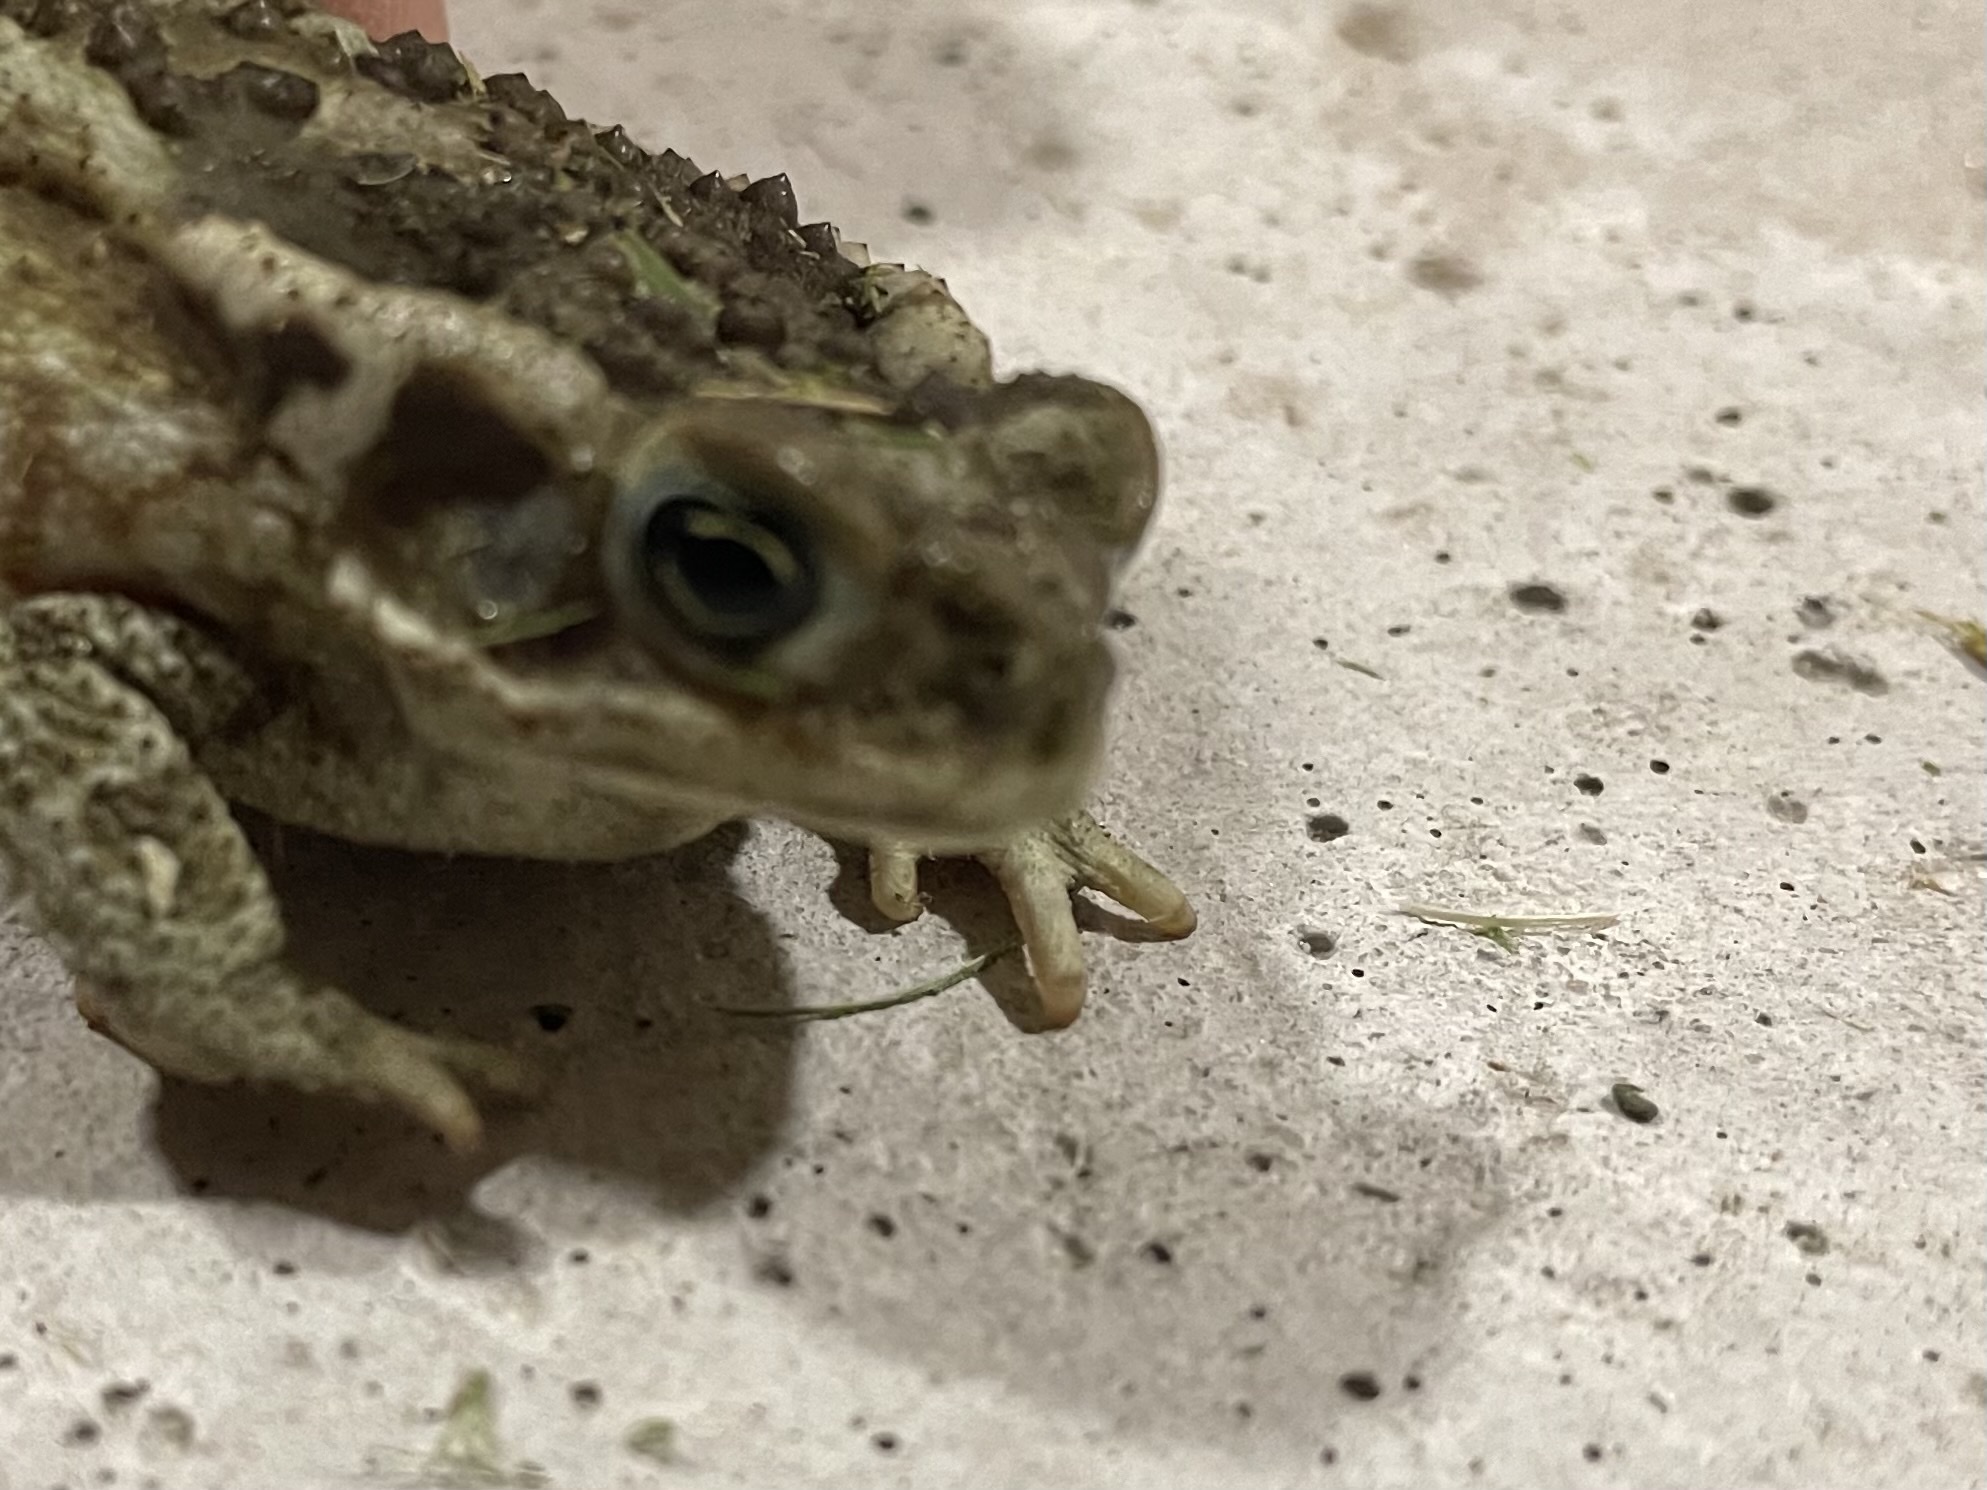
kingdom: Animalia
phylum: Chordata
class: Amphibia
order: Anura
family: Bufonidae
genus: Rhinella
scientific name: Rhinella arenarum
